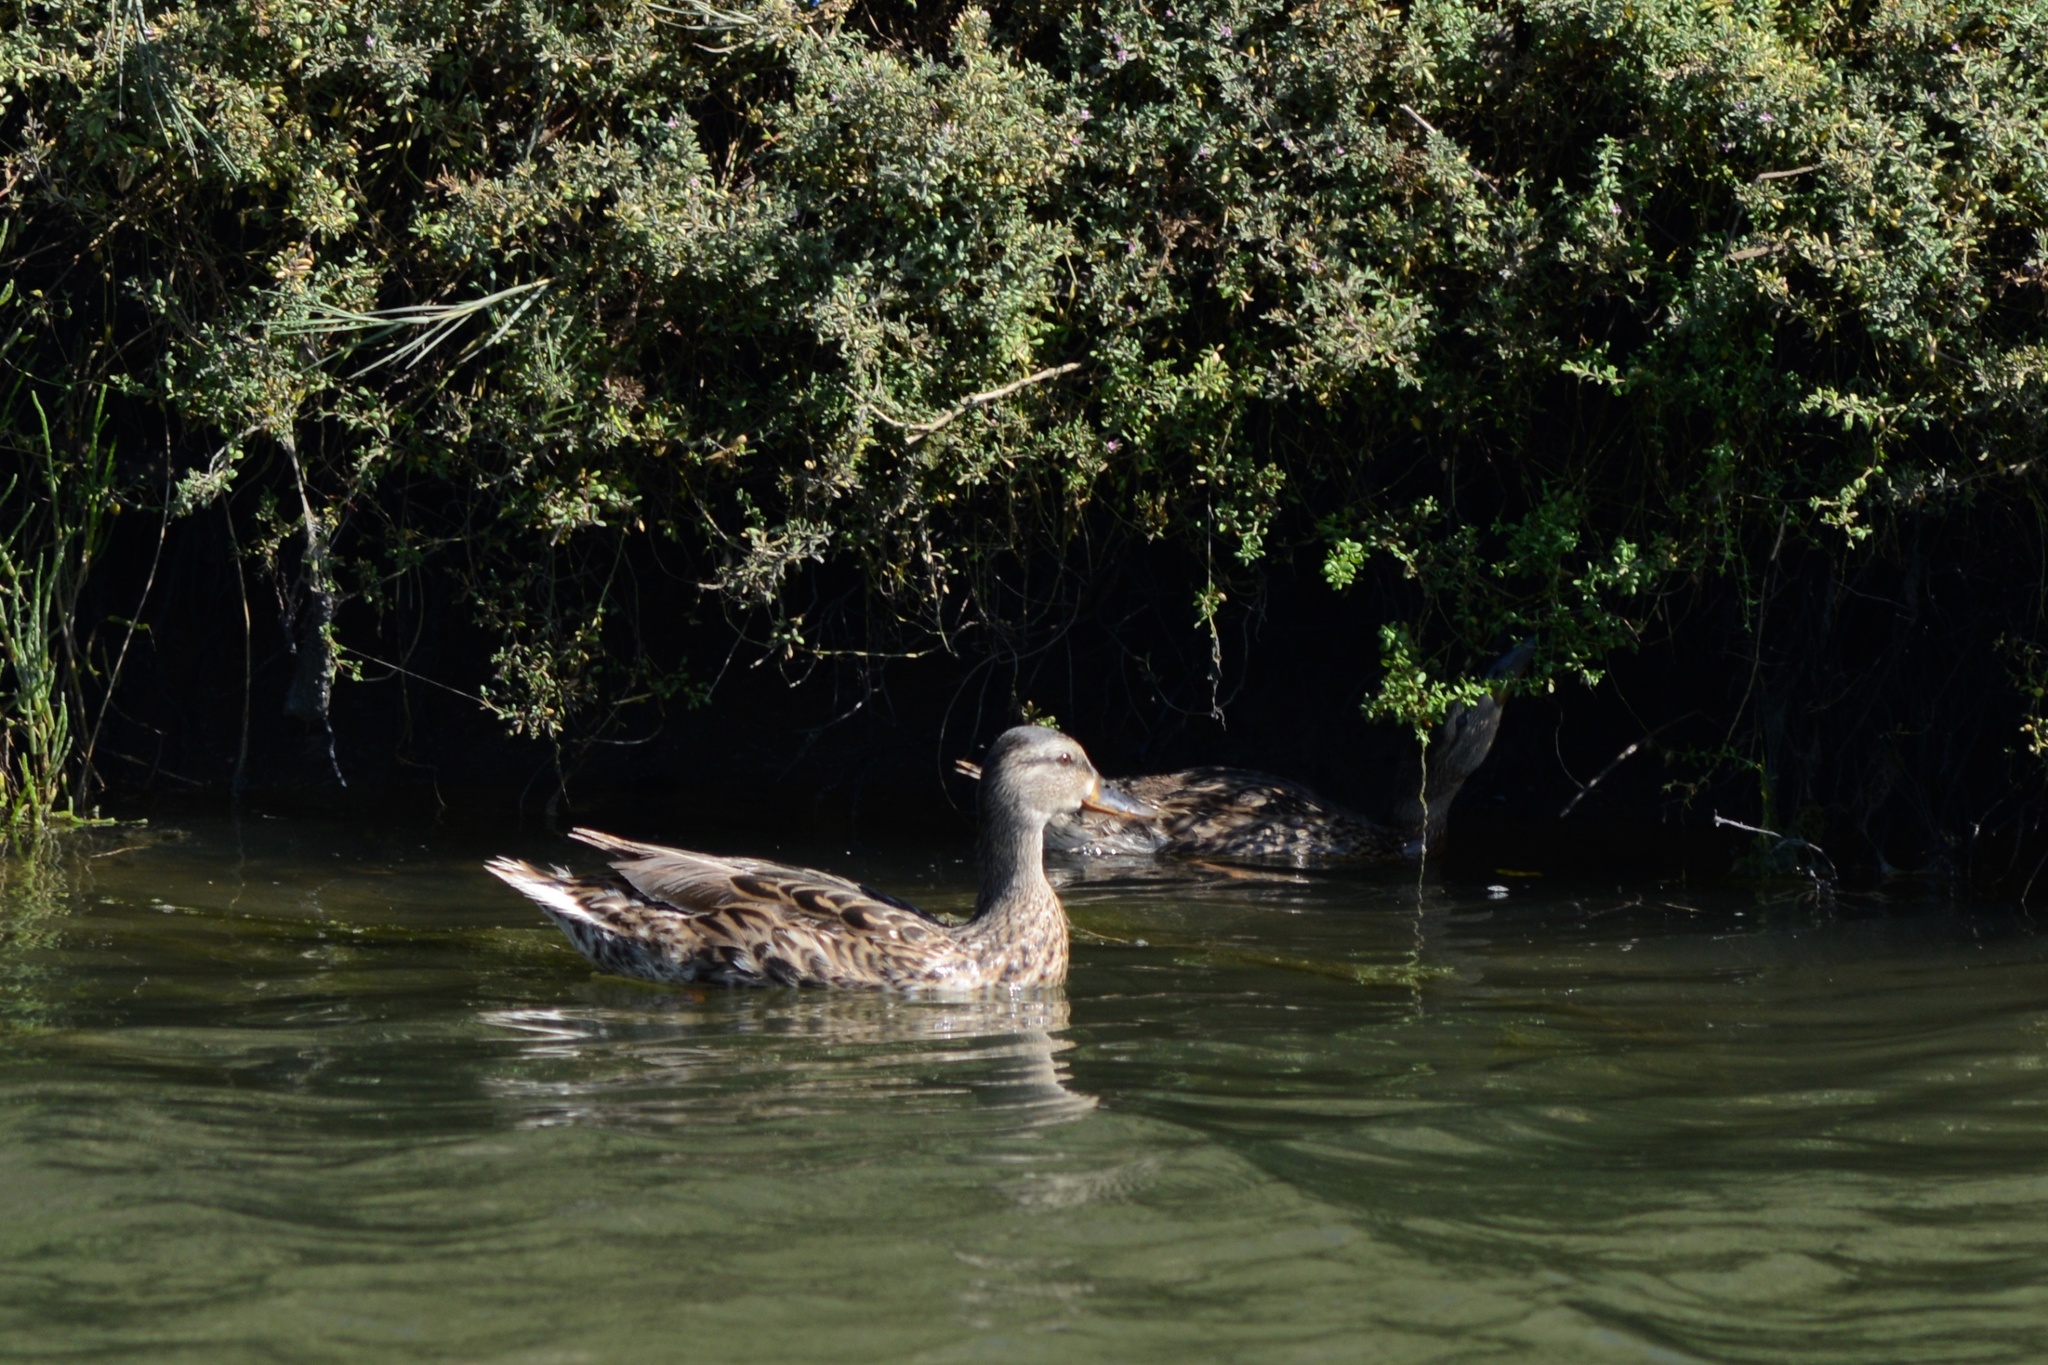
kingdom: Animalia
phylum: Chordata
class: Aves
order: Anseriformes
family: Anatidae
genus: Anas
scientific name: Anas platyrhynchos
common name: Mallard
